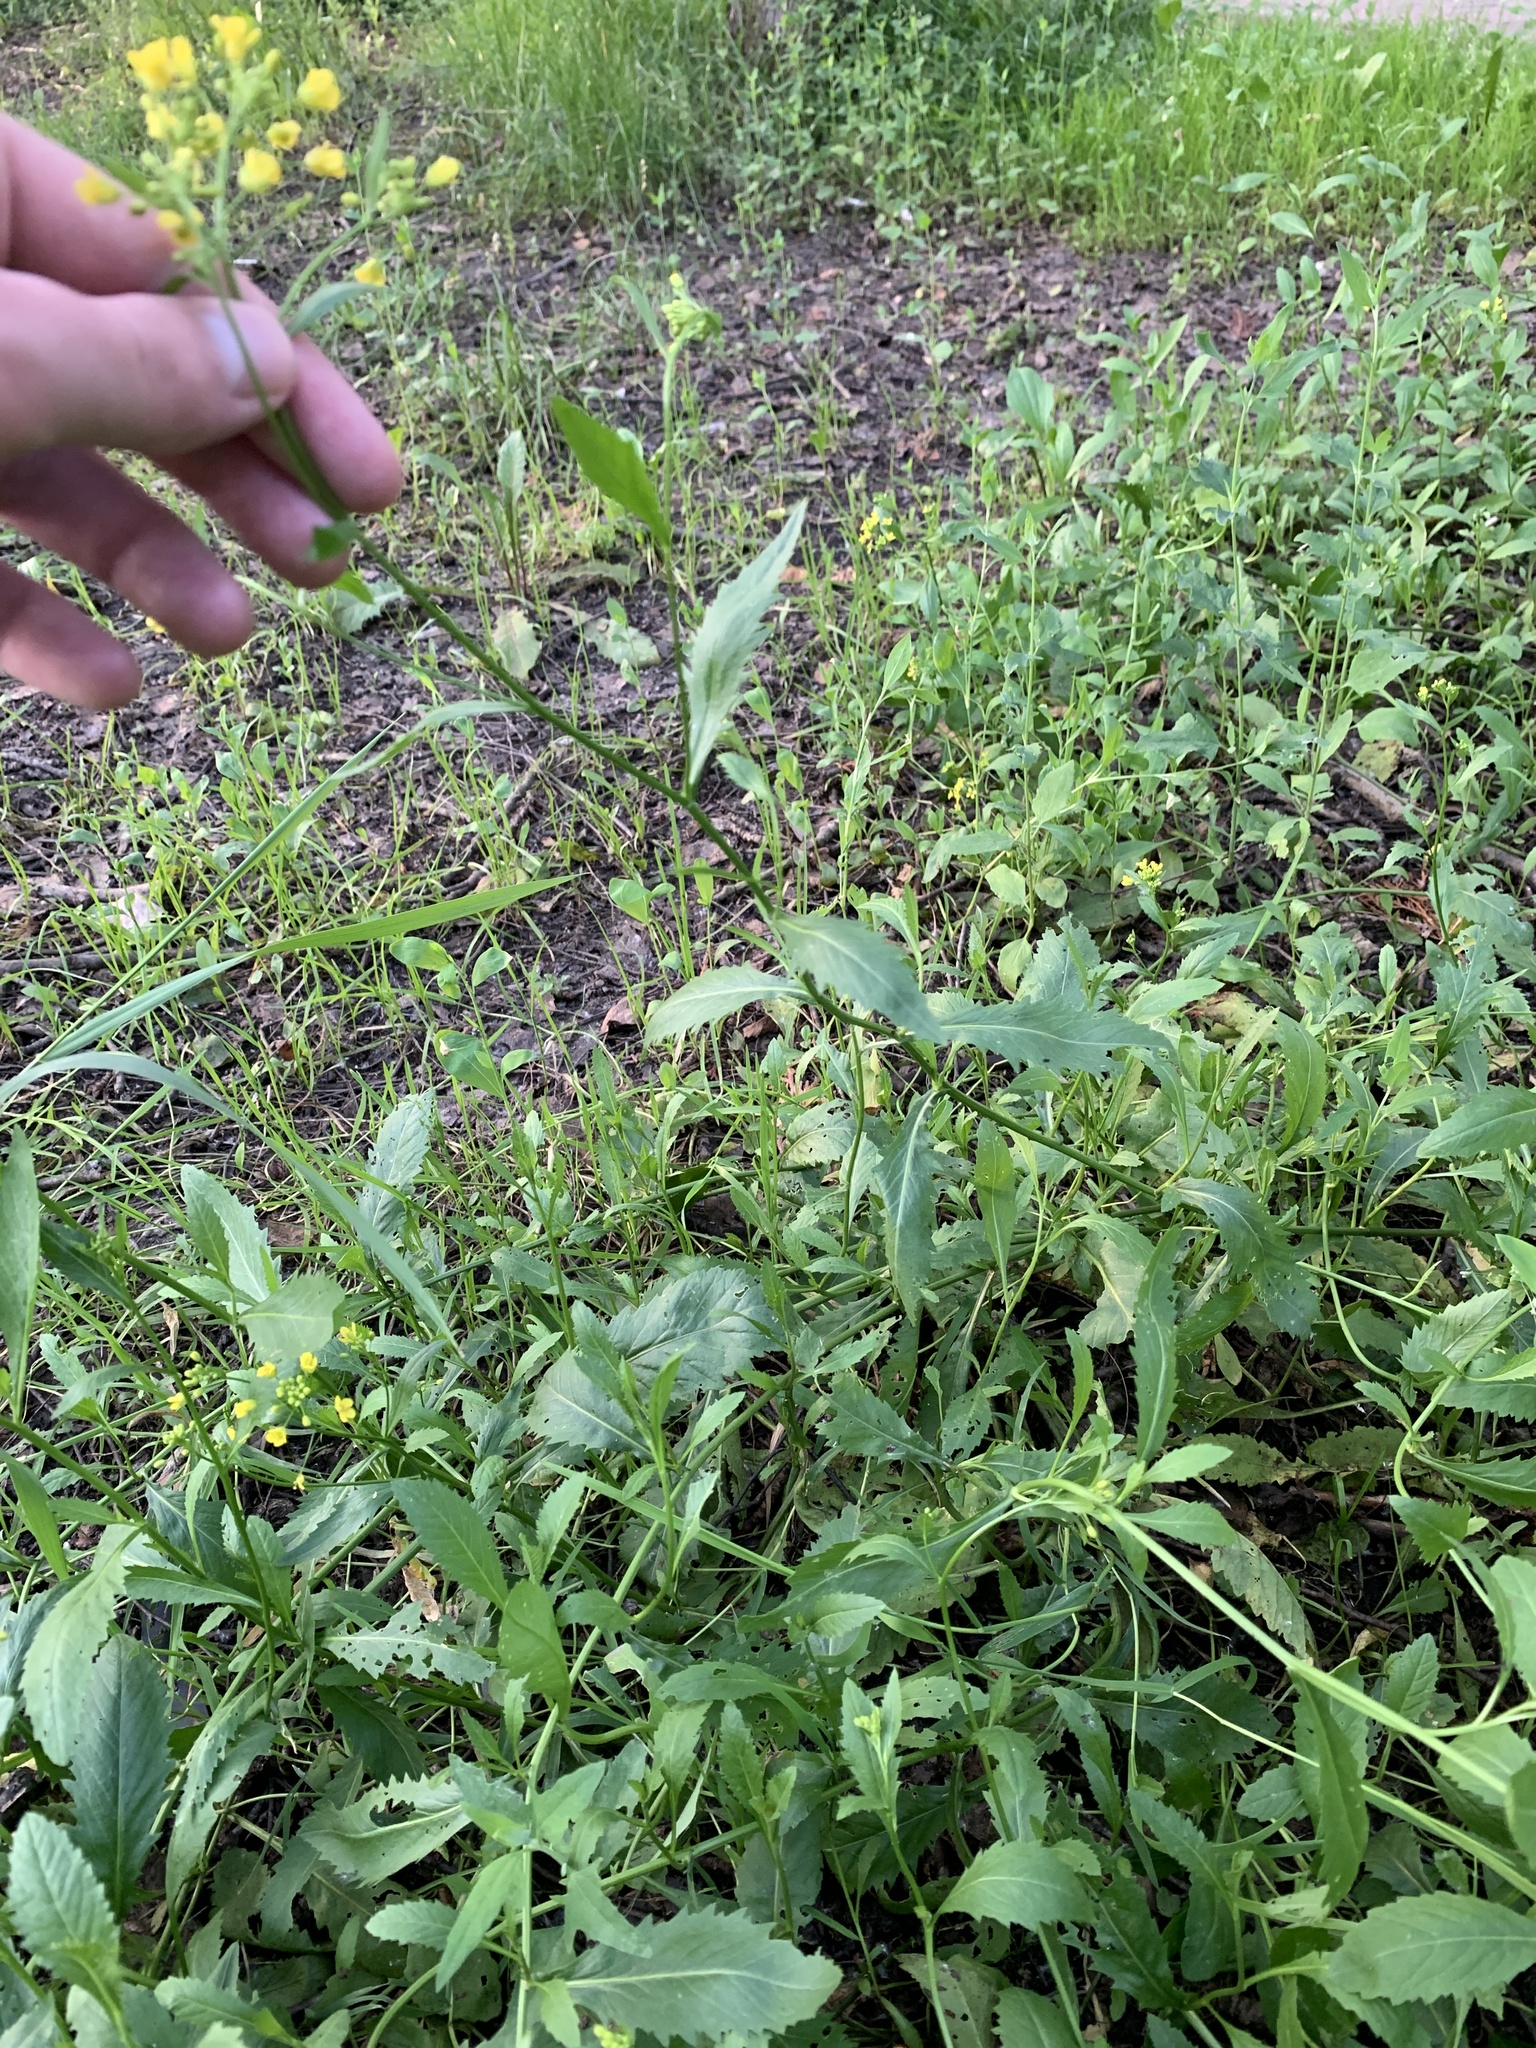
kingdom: Plantae
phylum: Tracheophyta
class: Magnoliopsida
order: Brassicales
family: Brassicaceae
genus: Rorippa
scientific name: Rorippa austriaca
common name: Austrian yellow-cress
